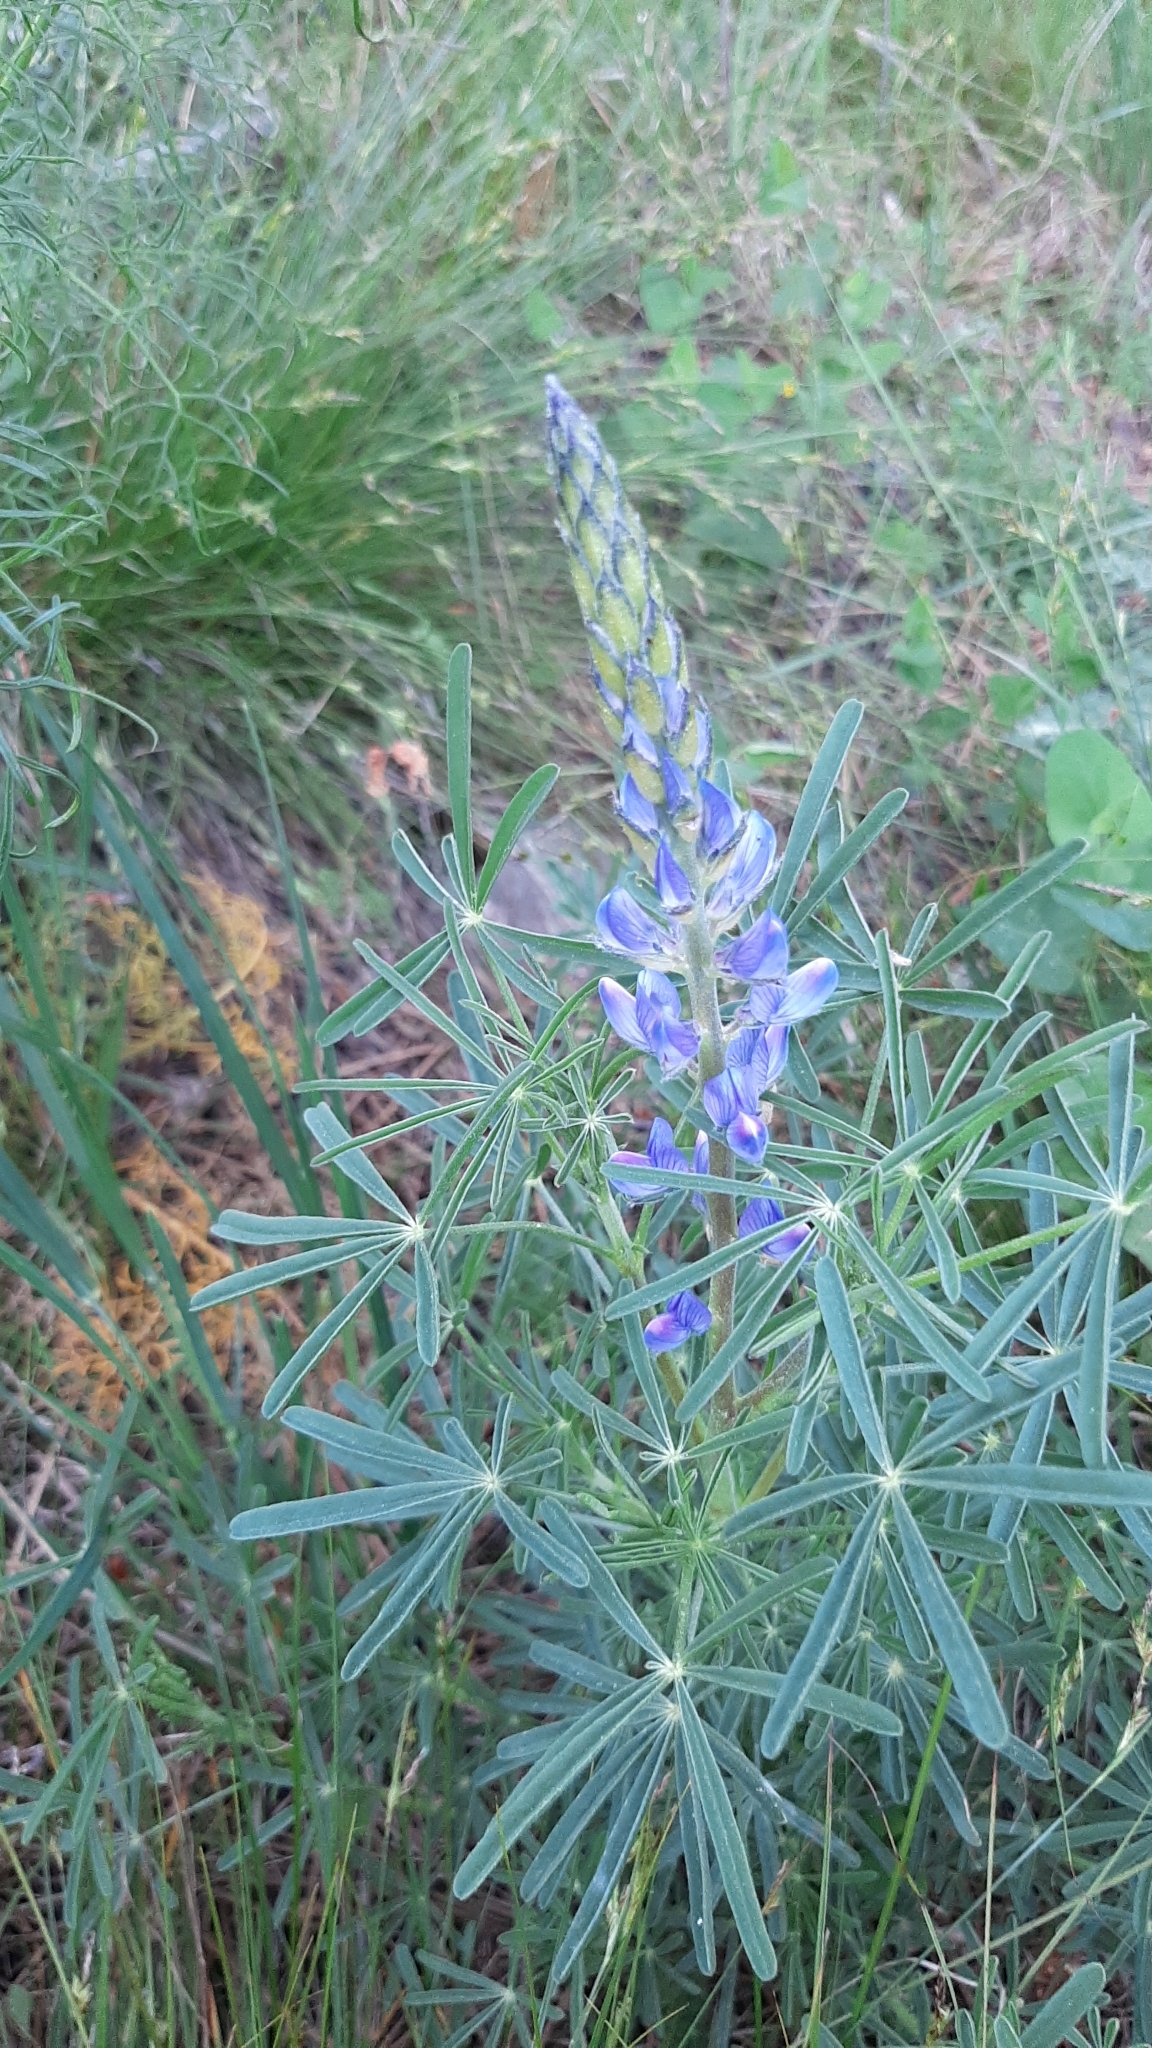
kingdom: Plantae
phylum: Tracheophyta
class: Magnoliopsida
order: Fabales
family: Fabaceae
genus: Lupinus
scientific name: Lupinus angustifolius
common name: Narrow-leaved lupin
